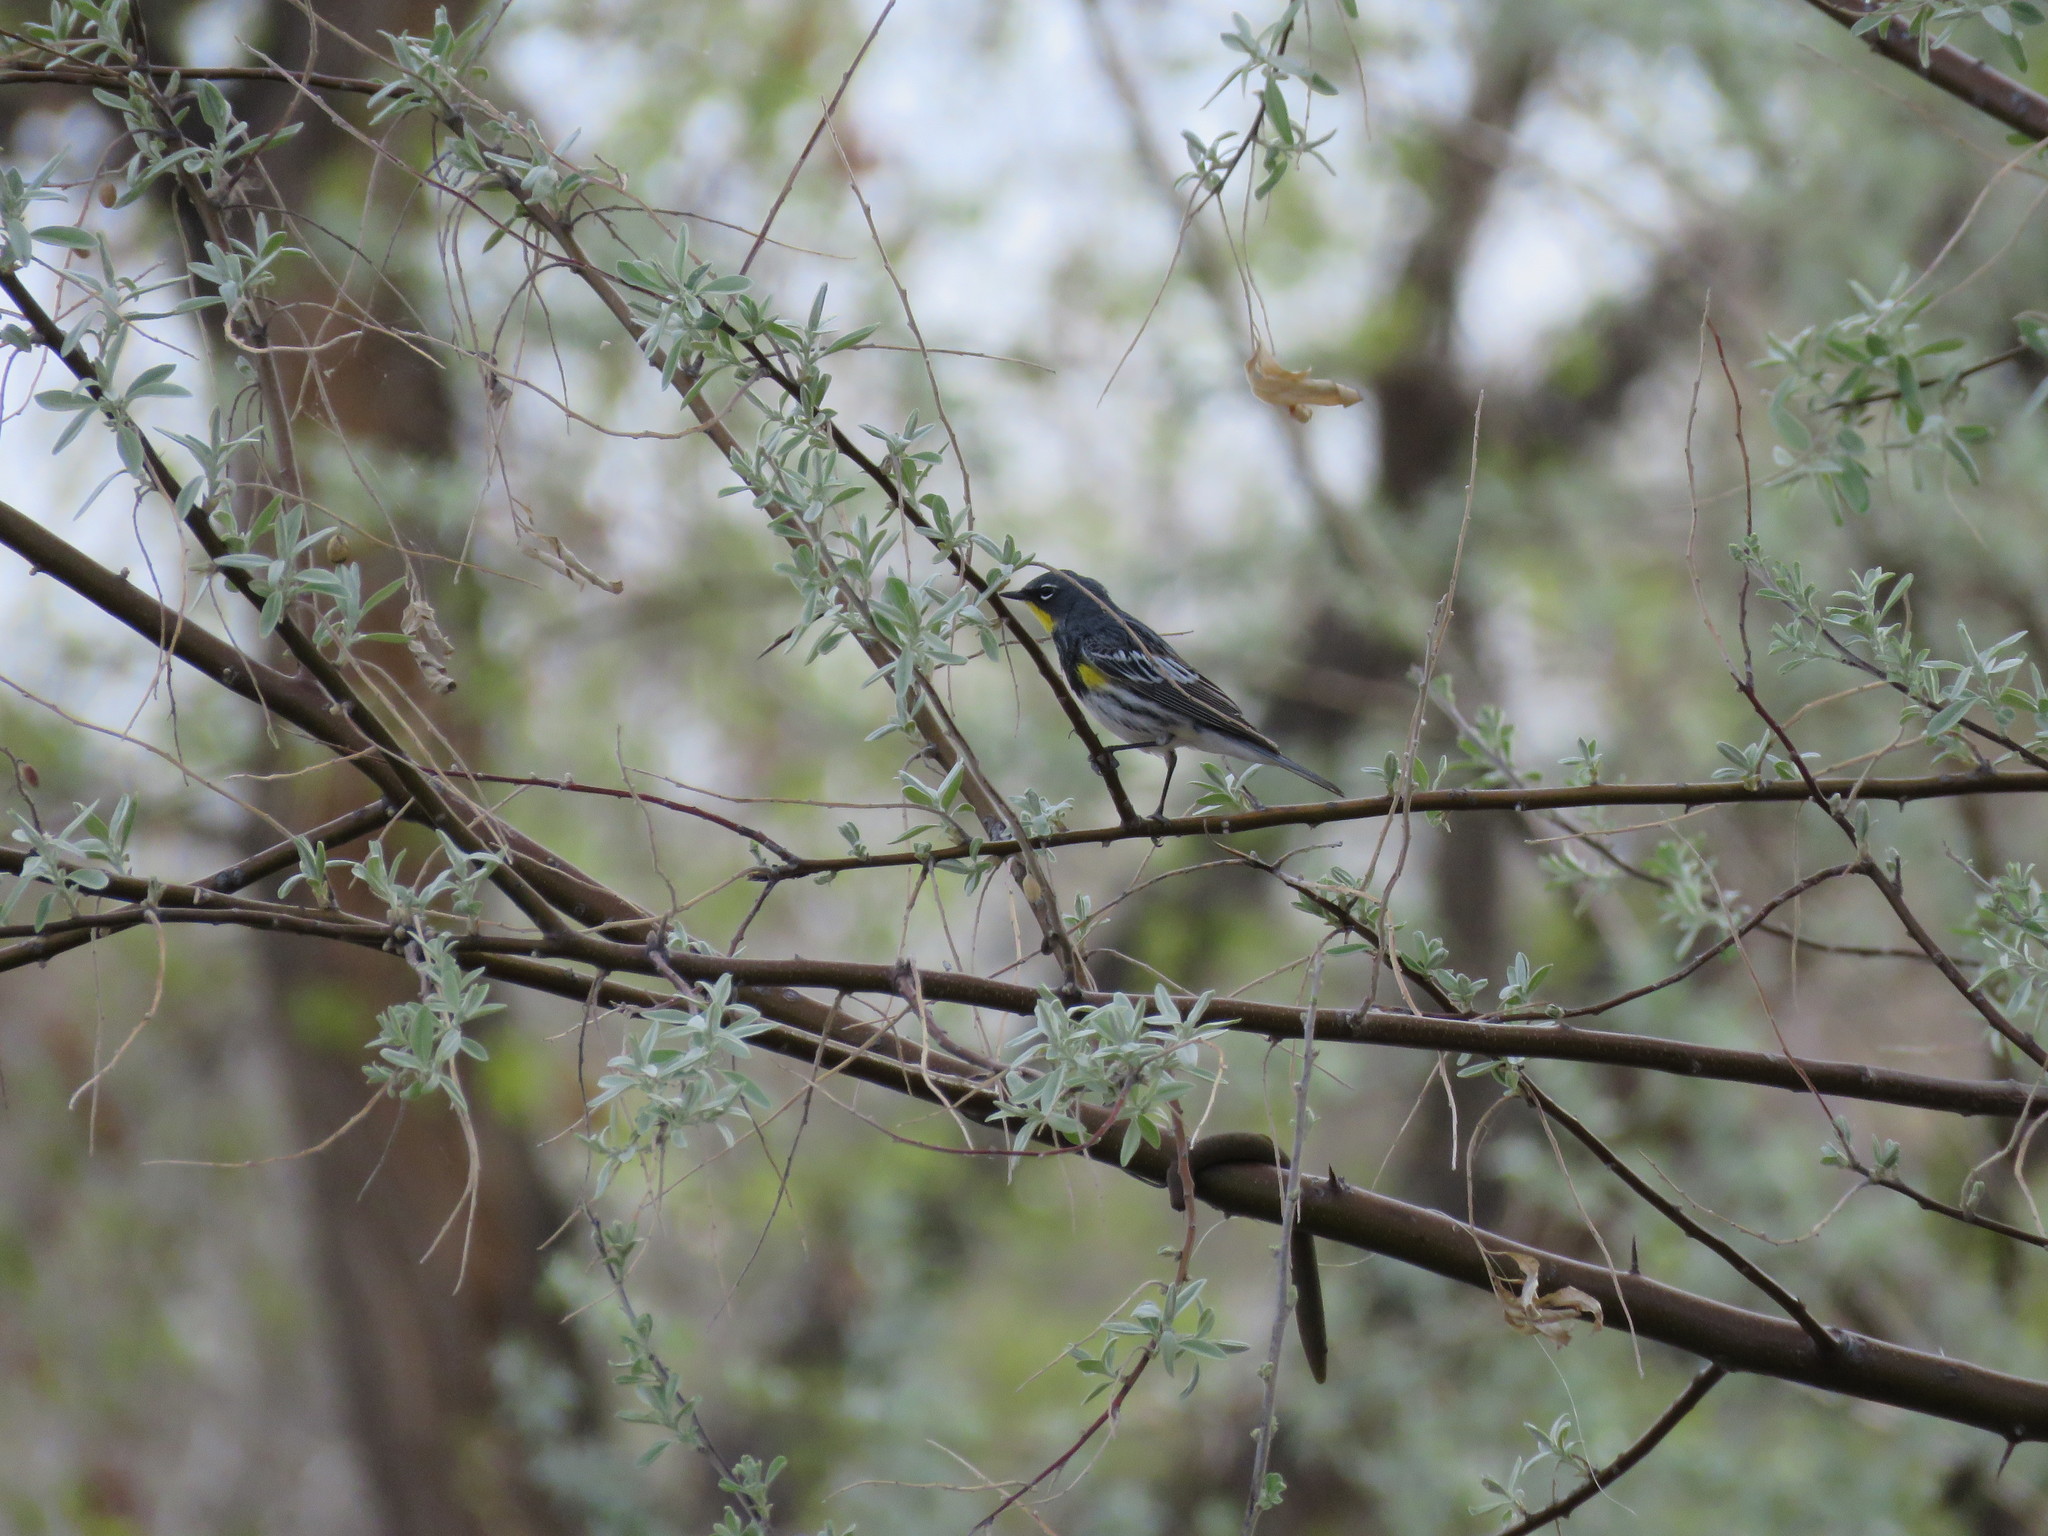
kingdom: Animalia
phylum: Chordata
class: Aves
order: Passeriformes
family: Parulidae
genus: Setophaga
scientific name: Setophaga coronata
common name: Myrtle warbler
